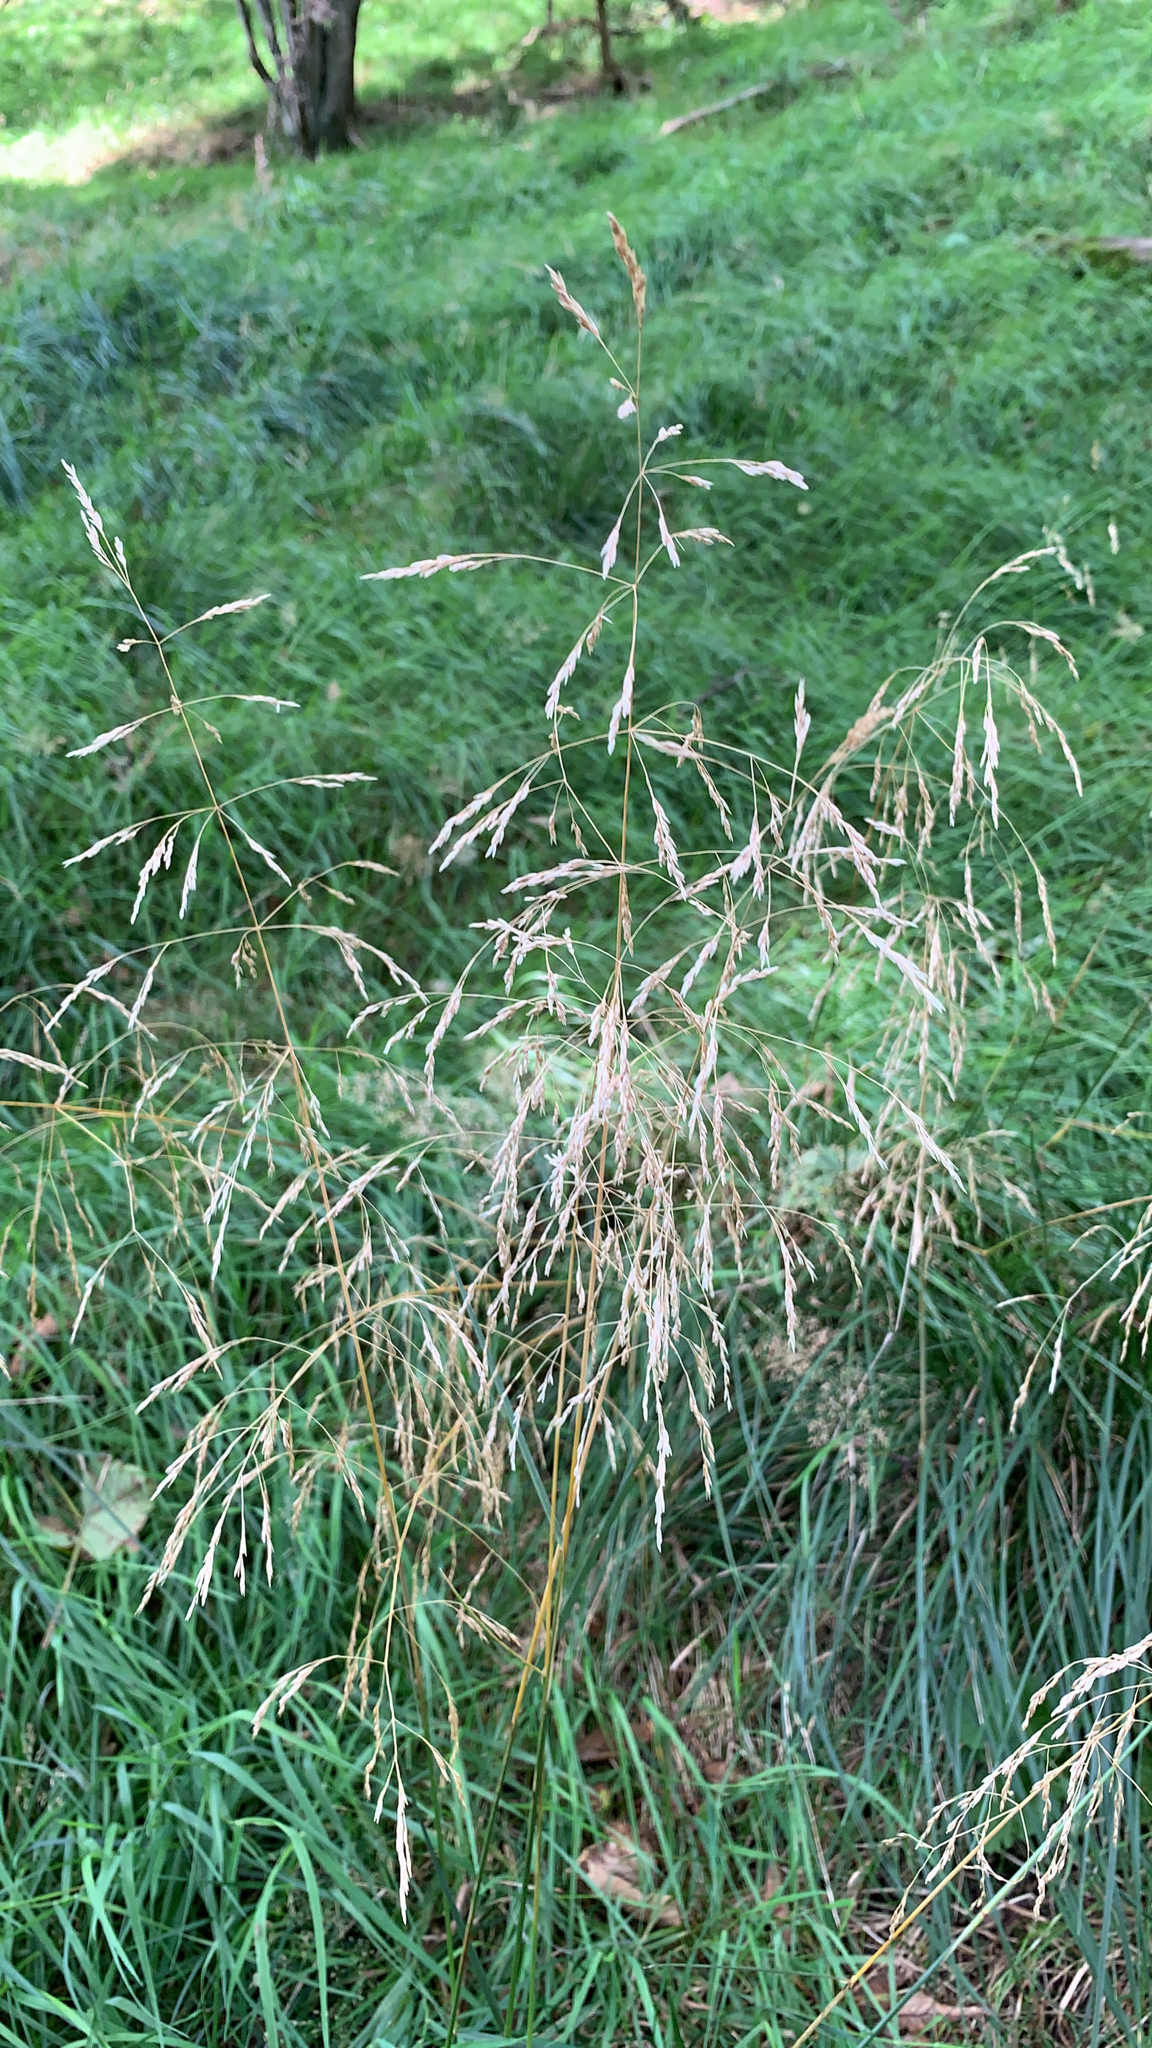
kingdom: Plantae
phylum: Tracheophyta
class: Liliopsida
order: Poales
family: Poaceae
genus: Deschampsia
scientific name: Deschampsia cespitosa
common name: Tufted hair-grass
